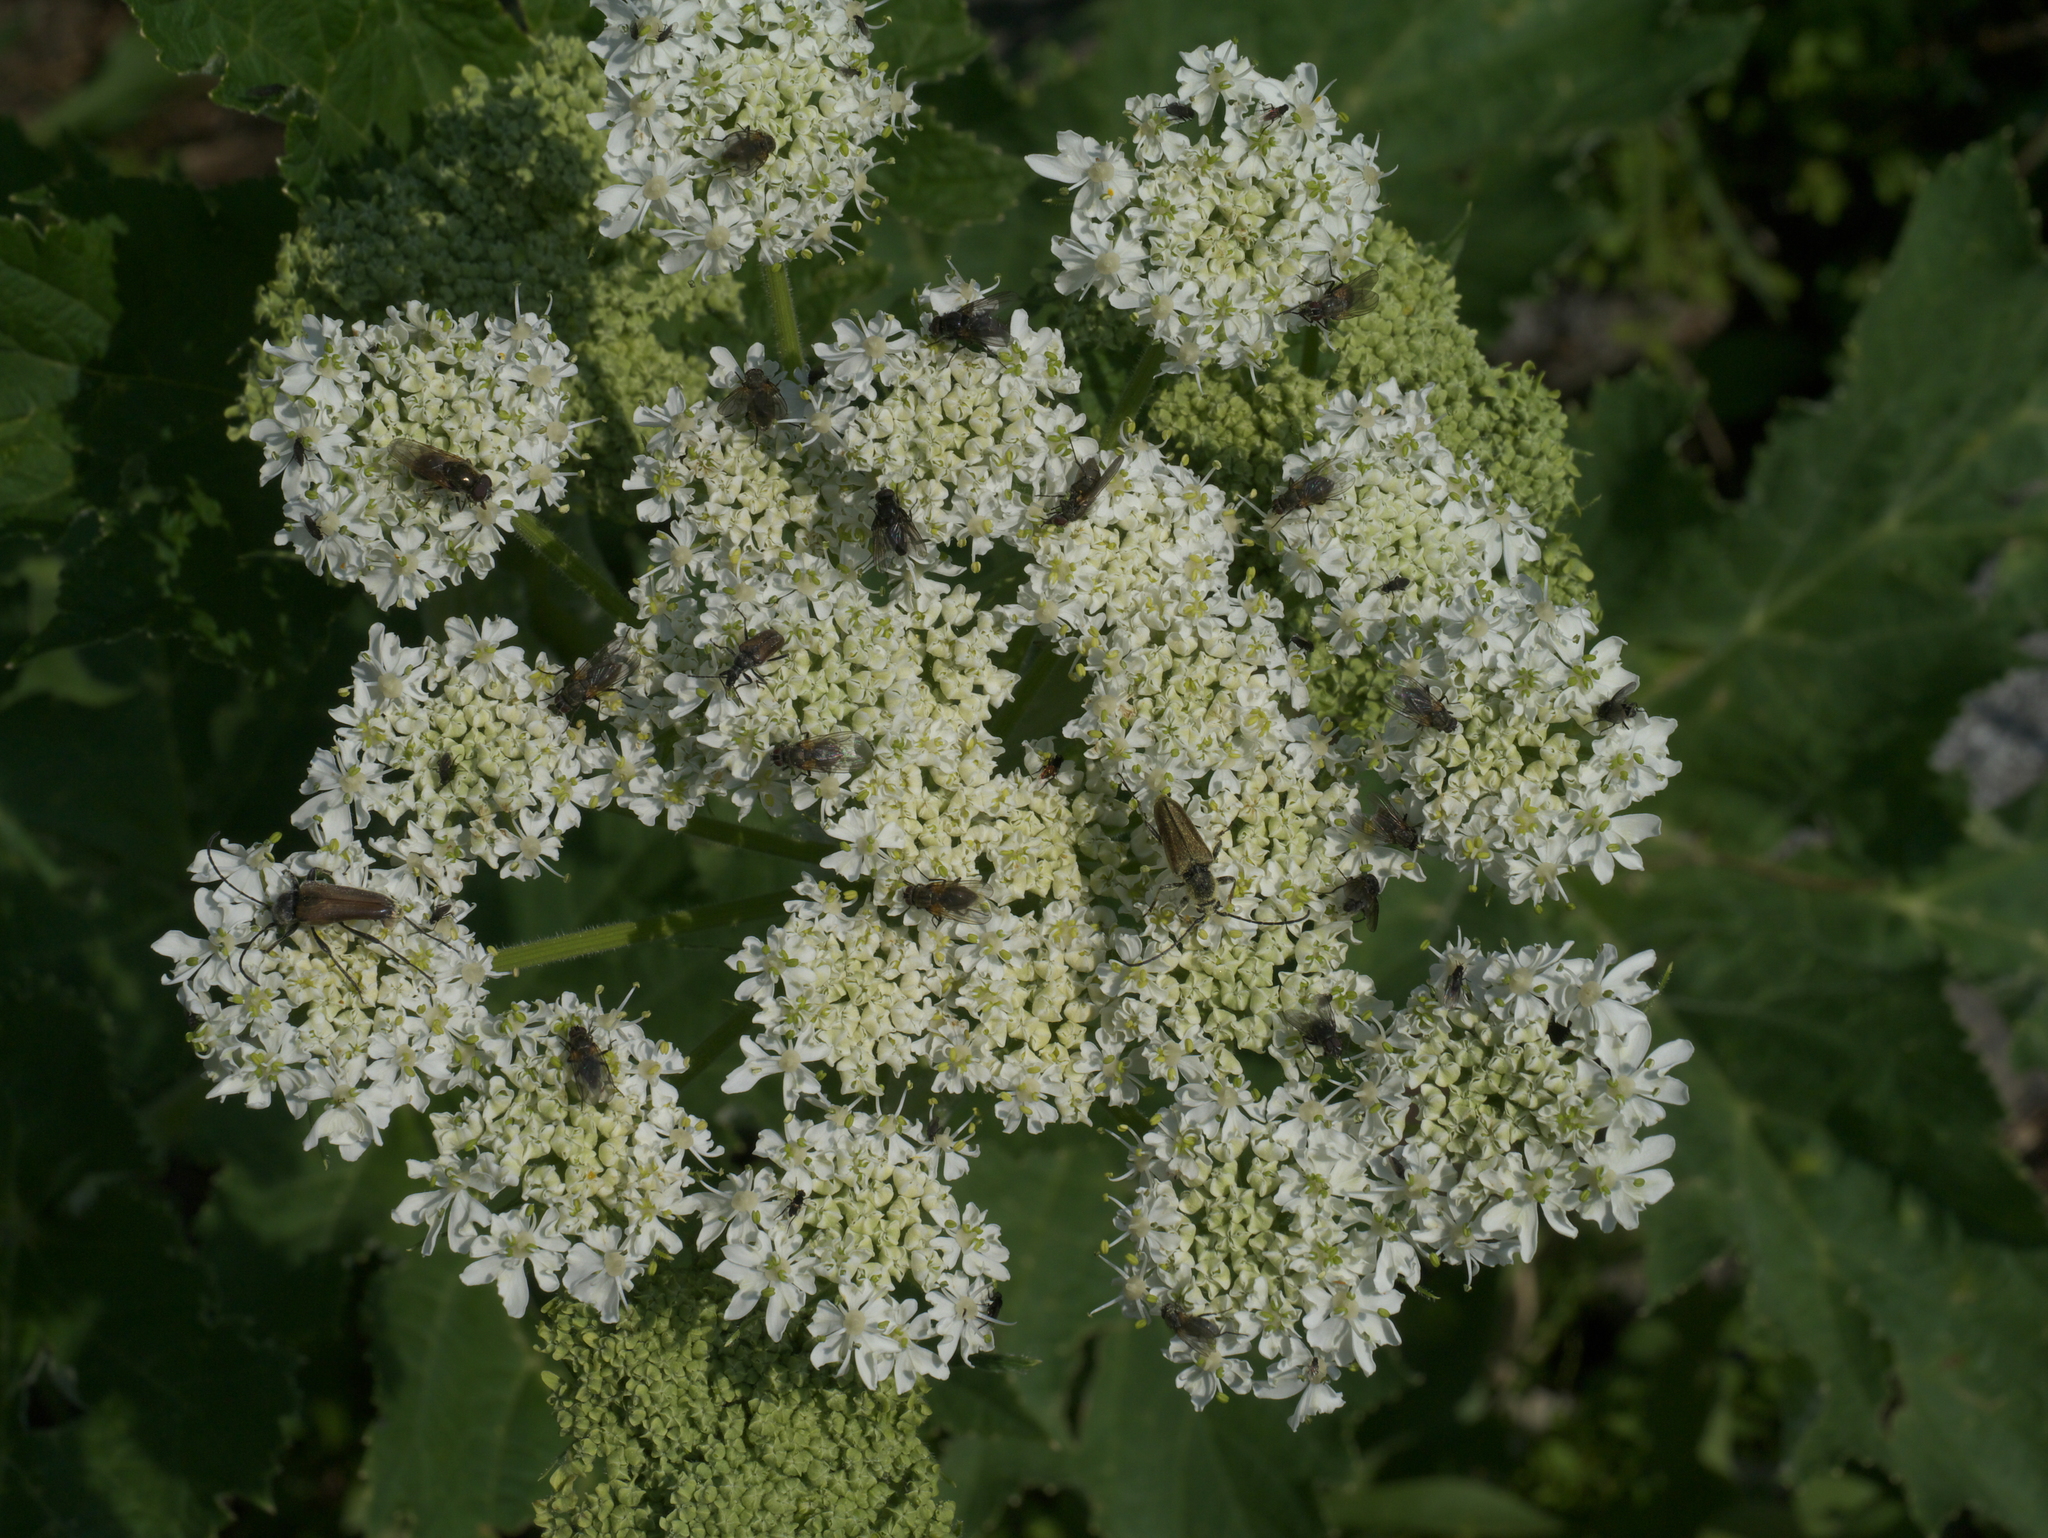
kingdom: Plantae
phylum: Tracheophyta
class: Magnoliopsida
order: Apiales
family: Apiaceae
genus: Heracleum
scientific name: Heracleum maximum
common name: American cow parsnip
